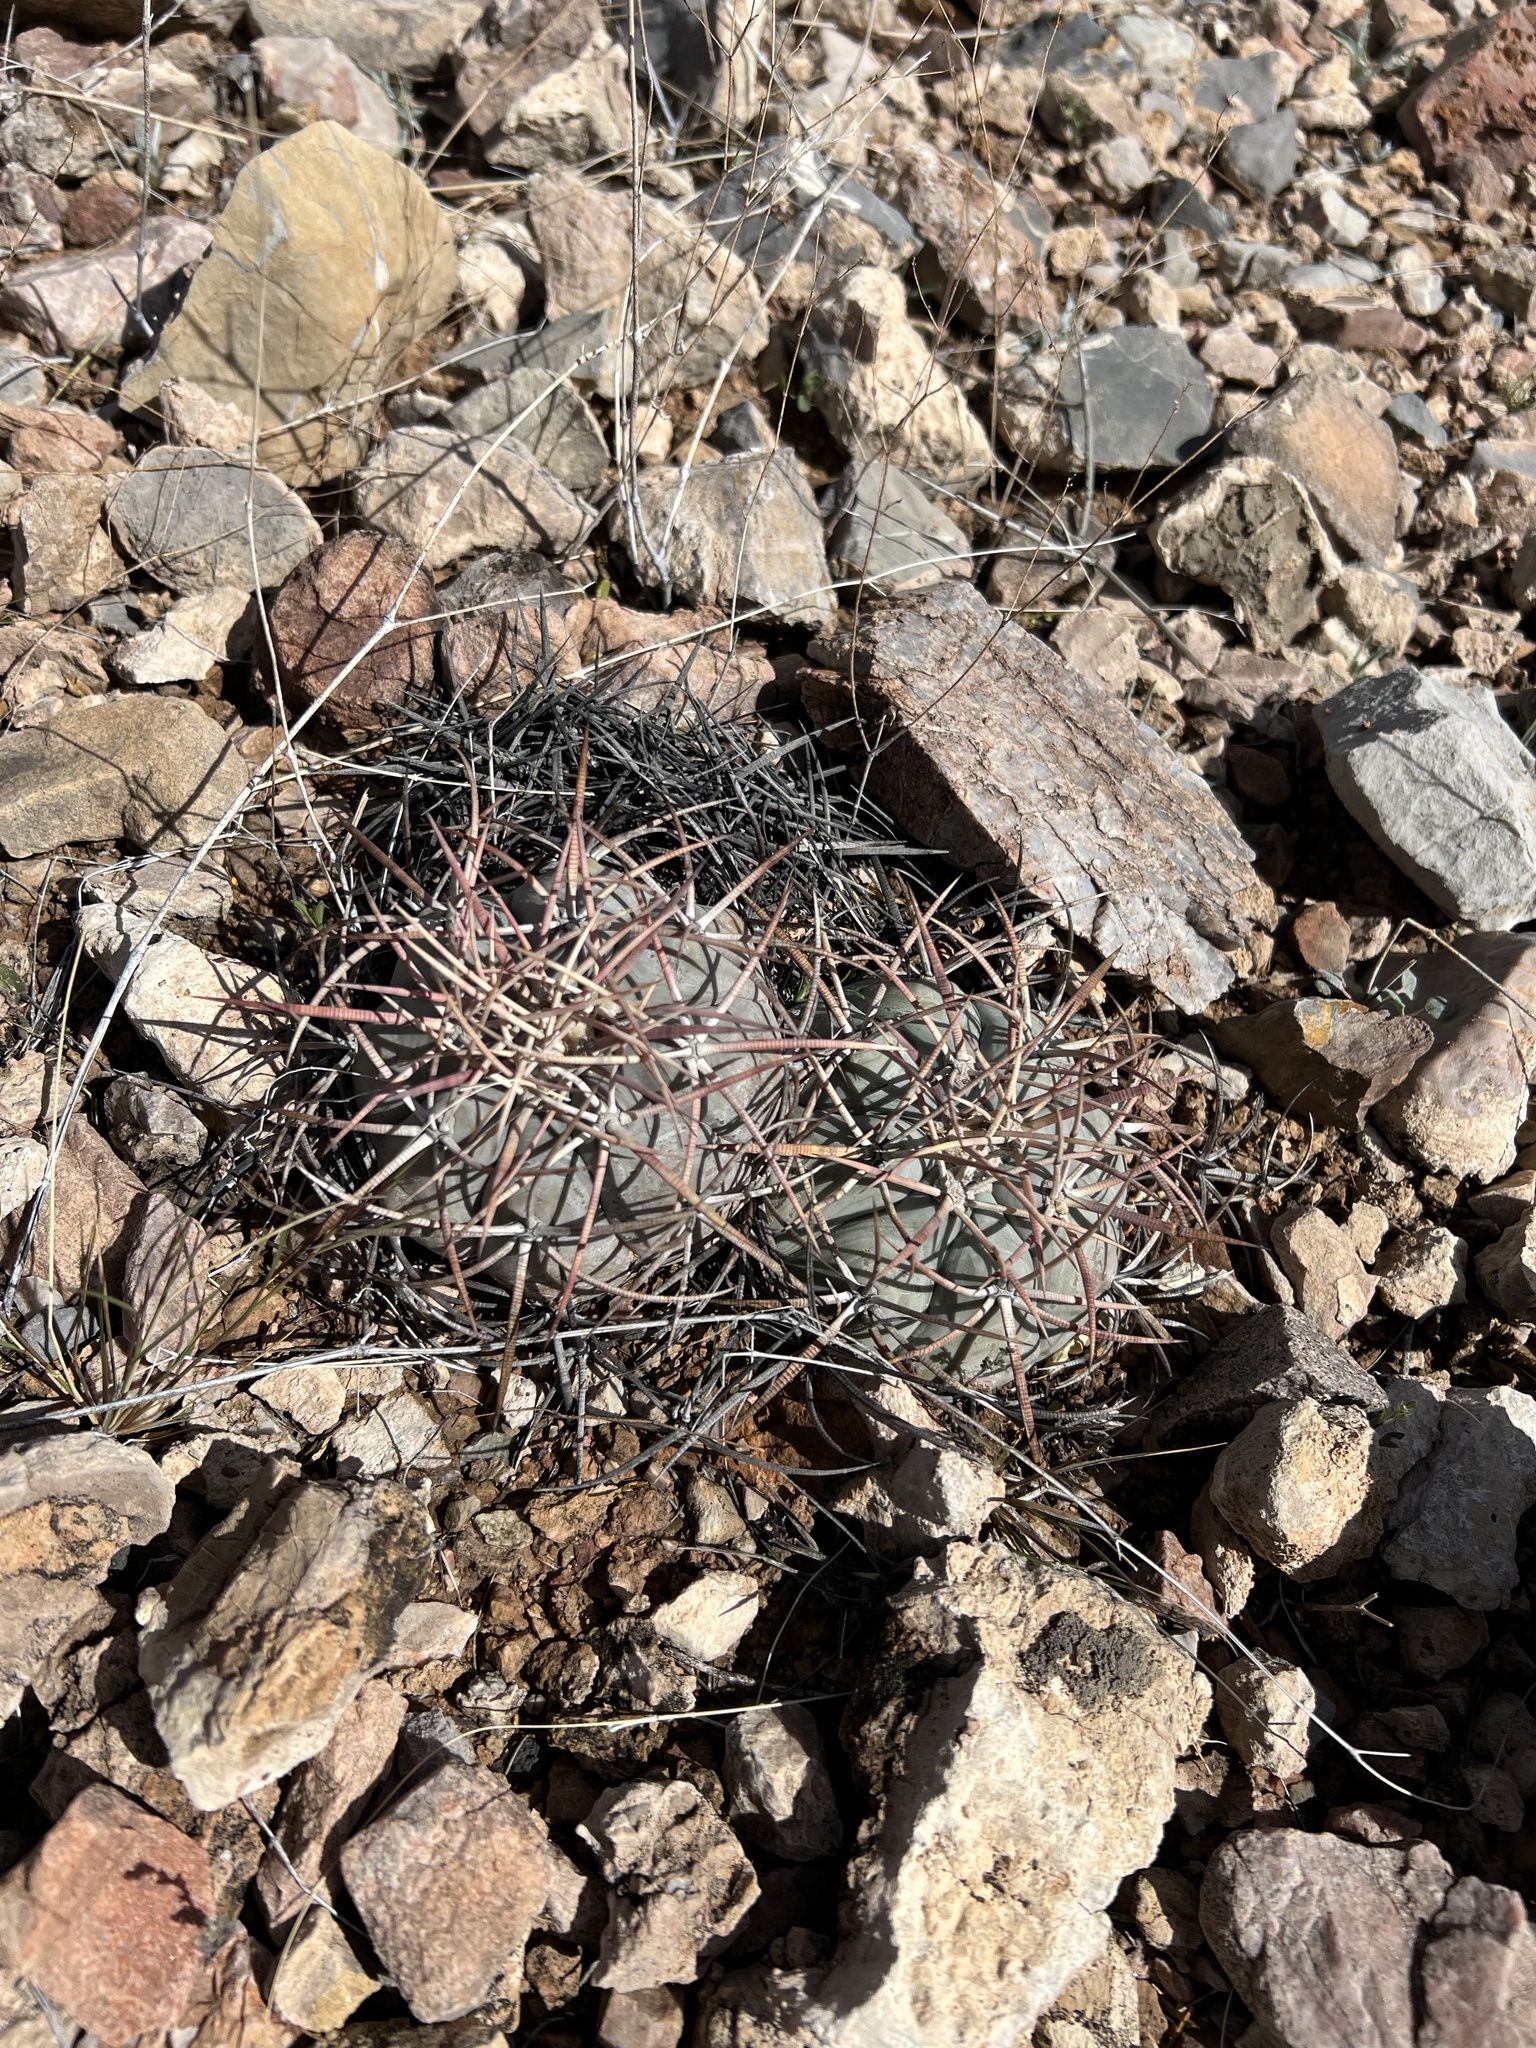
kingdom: Plantae
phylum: Tracheophyta
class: Magnoliopsida
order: Caryophyllales
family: Cactaceae
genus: Echinocactus
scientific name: Echinocactus horizonthalonius
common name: Devilshead
